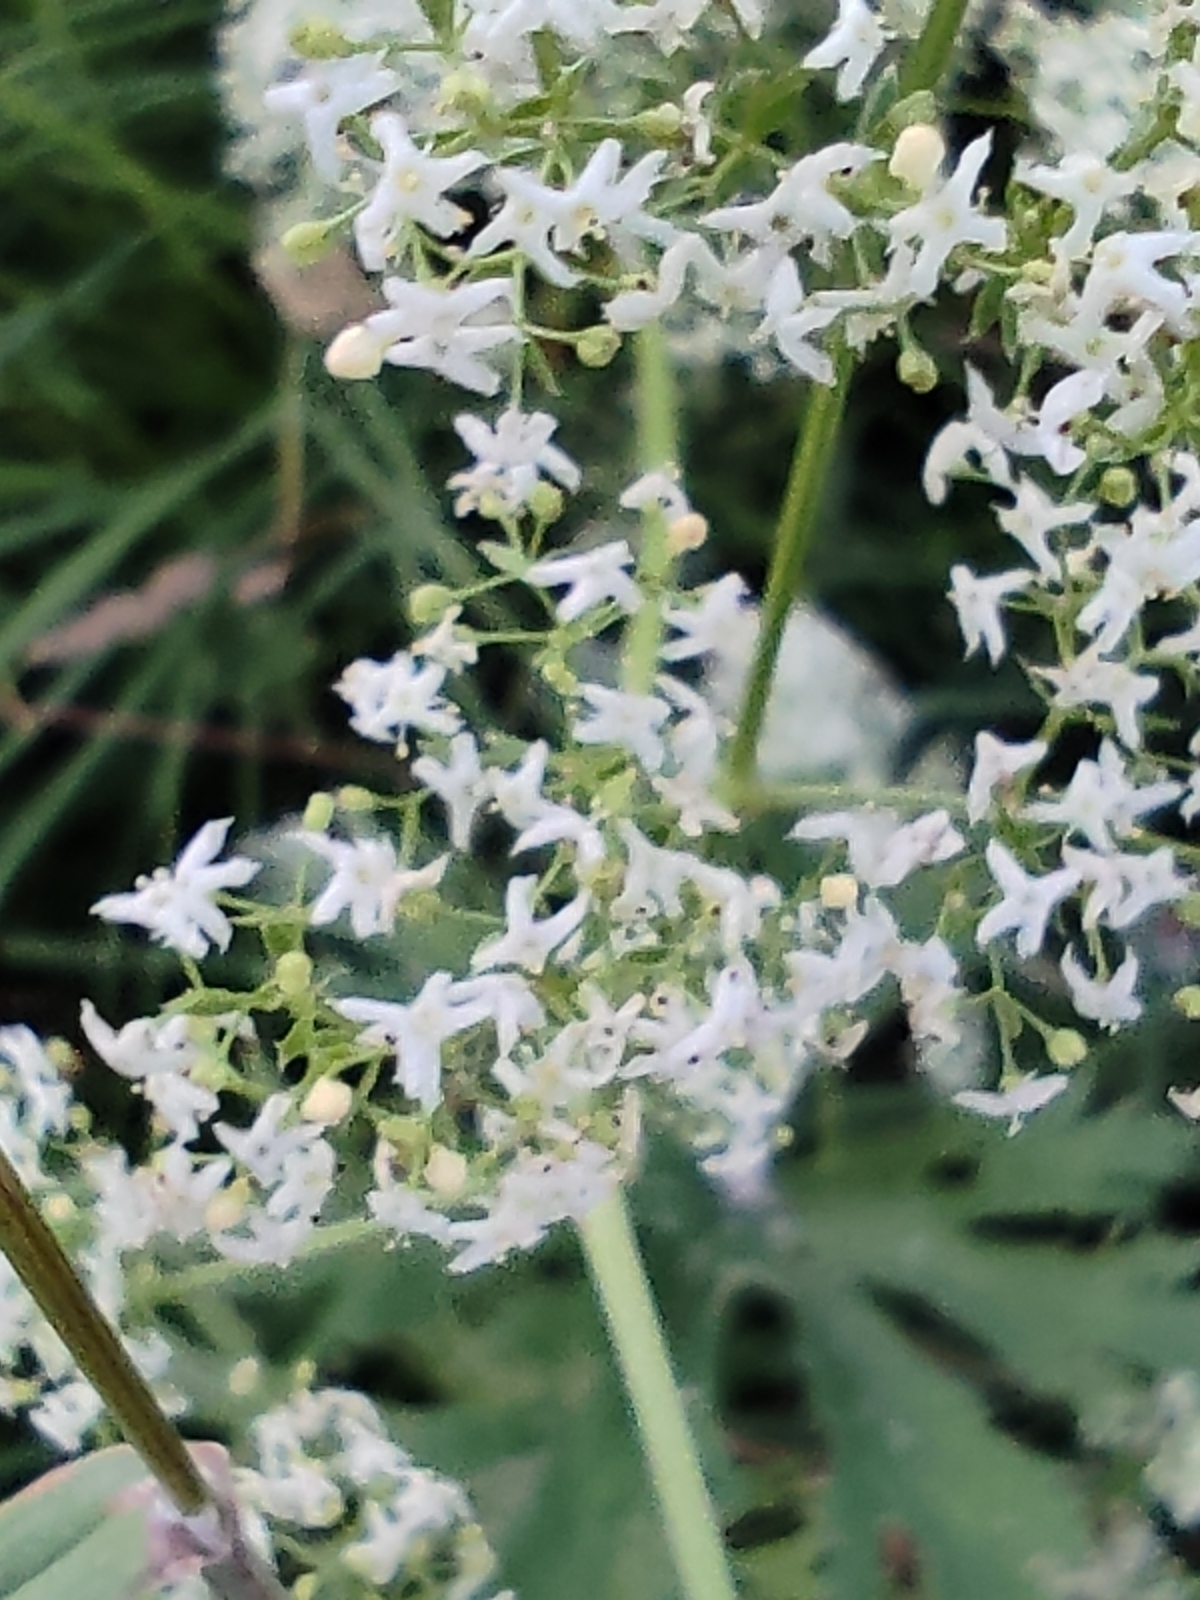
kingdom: Plantae
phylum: Tracheophyta
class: Magnoliopsida
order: Gentianales
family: Rubiaceae
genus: Galium
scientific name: Galium mollugo
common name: Hedge bedstraw
